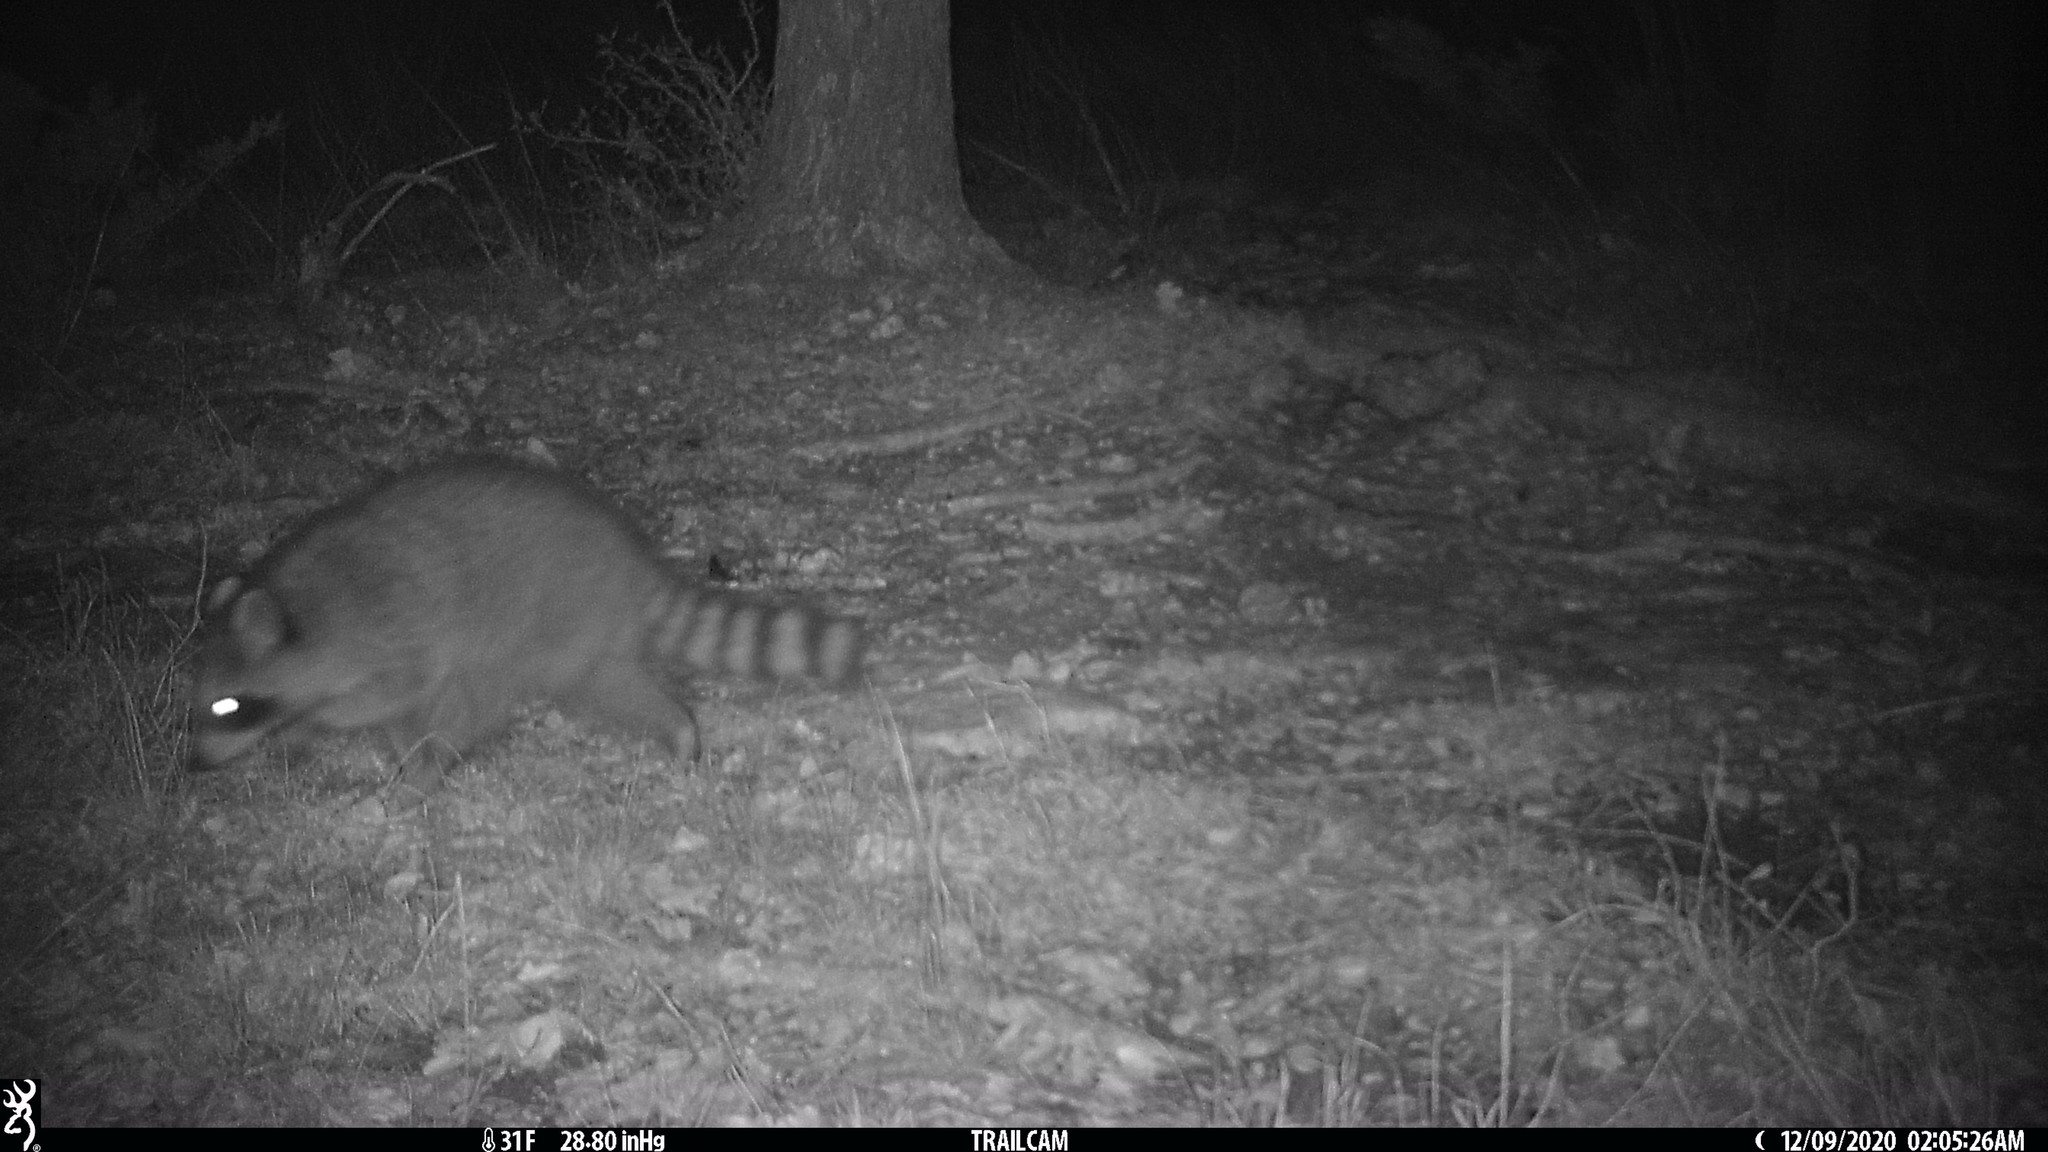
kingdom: Animalia
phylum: Chordata
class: Mammalia
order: Carnivora
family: Procyonidae
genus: Procyon
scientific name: Procyon lotor
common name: Raccoon
